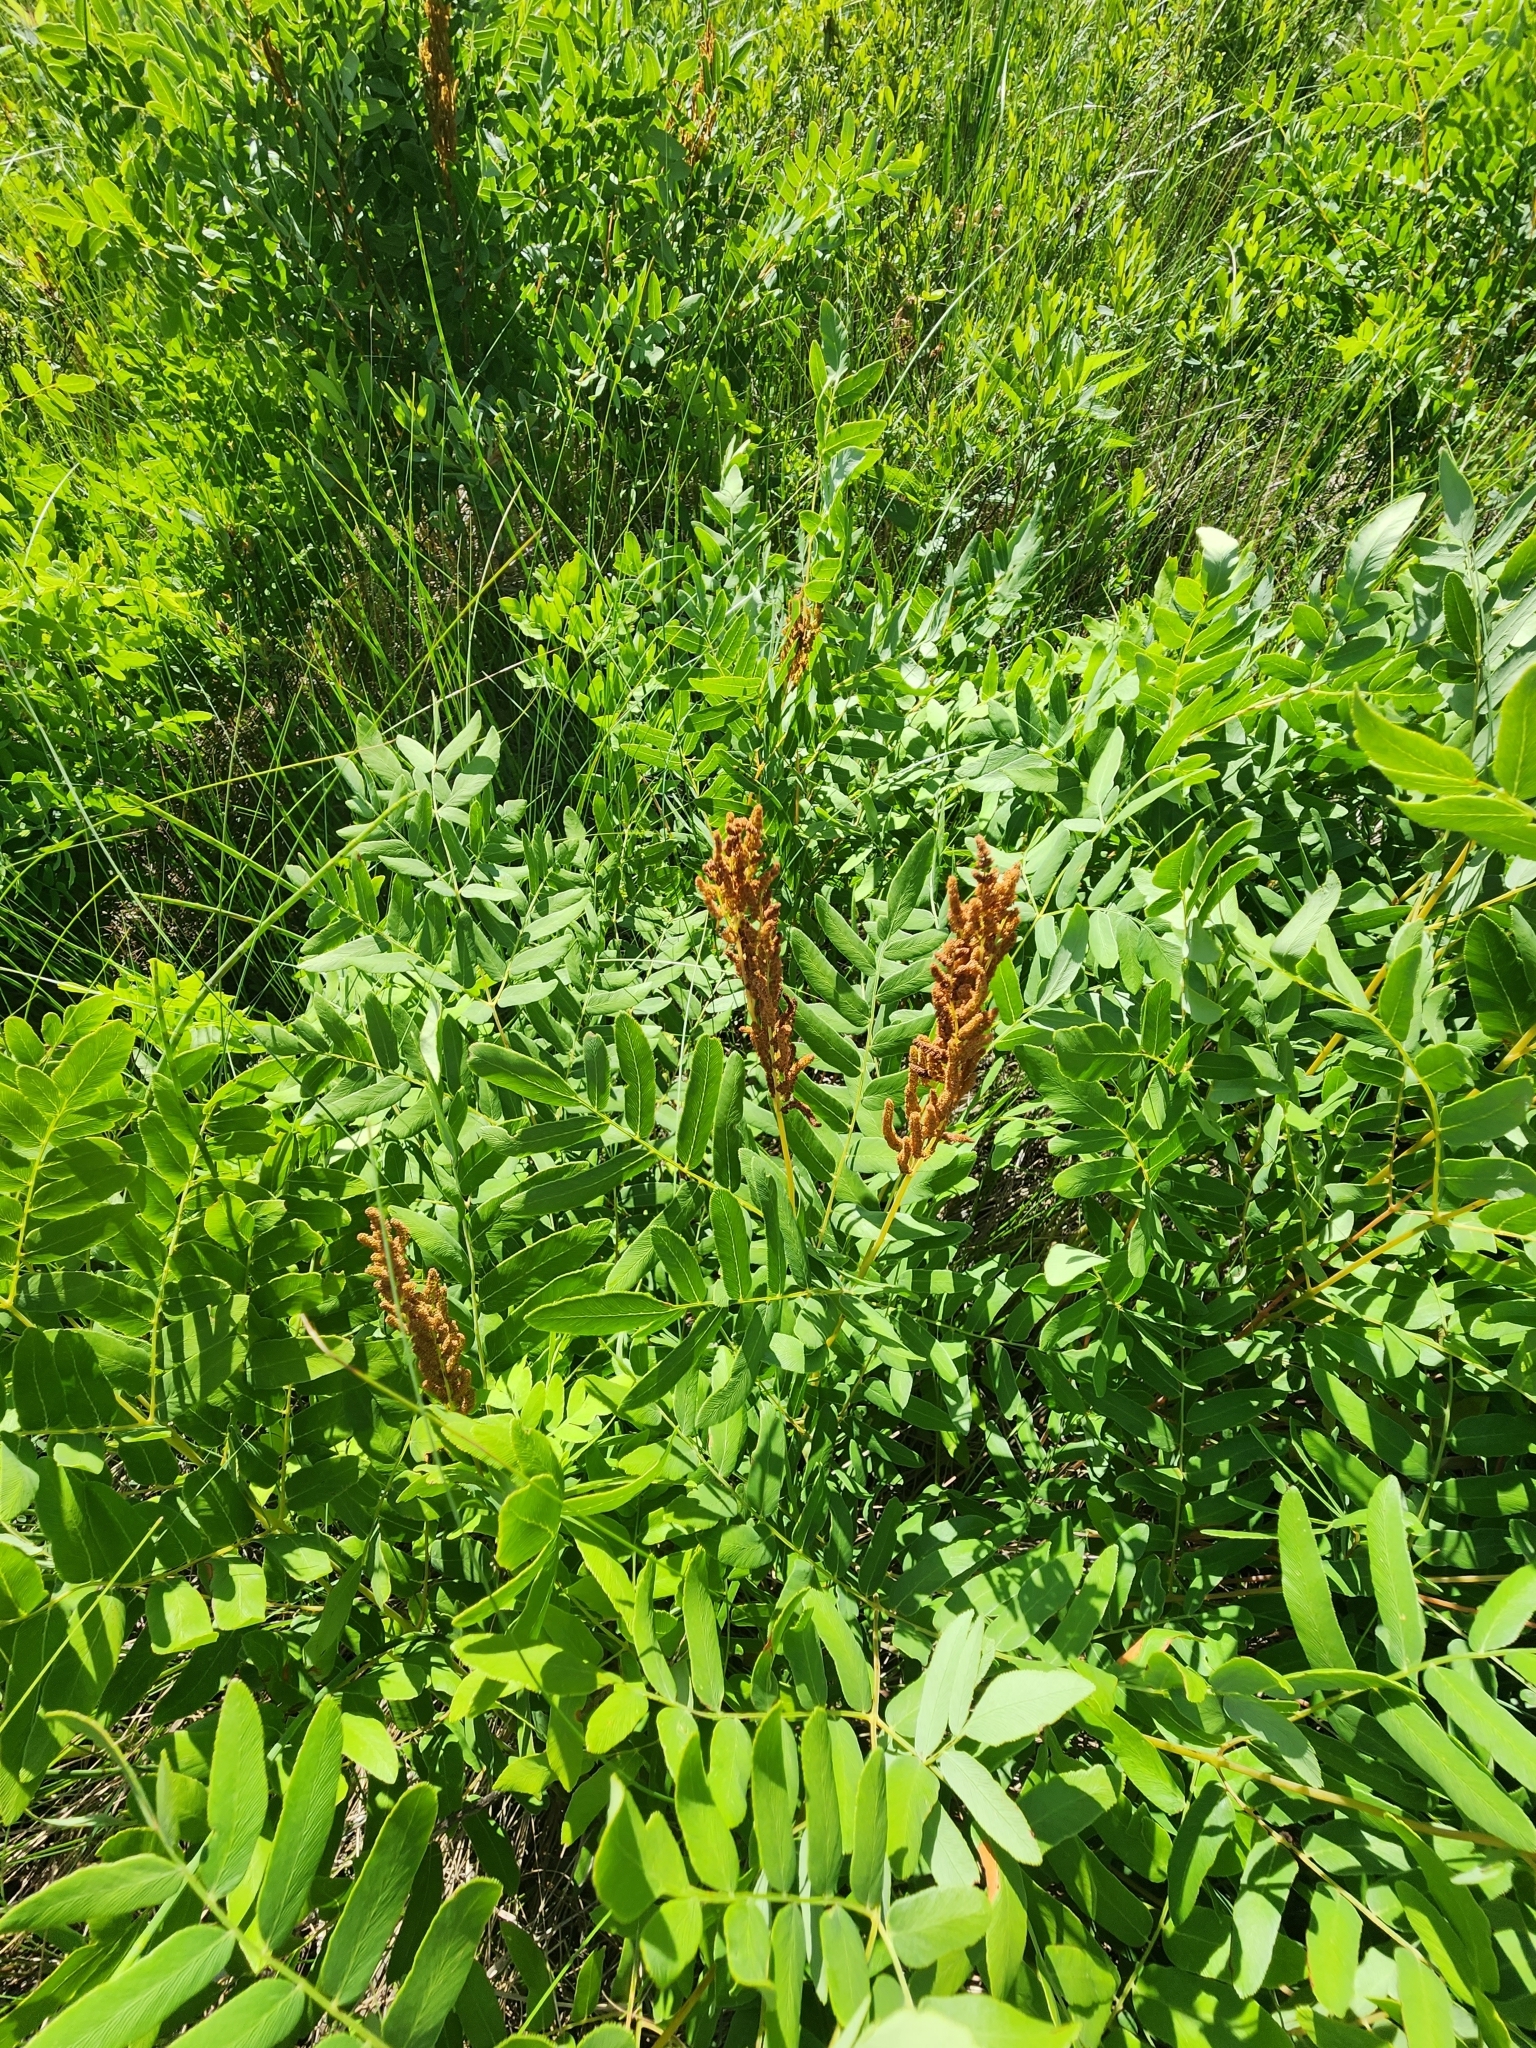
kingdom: Plantae
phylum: Tracheophyta
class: Polypodiopsida
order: Osmundales
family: Osmundaceae
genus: Osmunda
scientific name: Osmunda spectabilis
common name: American royal fern
